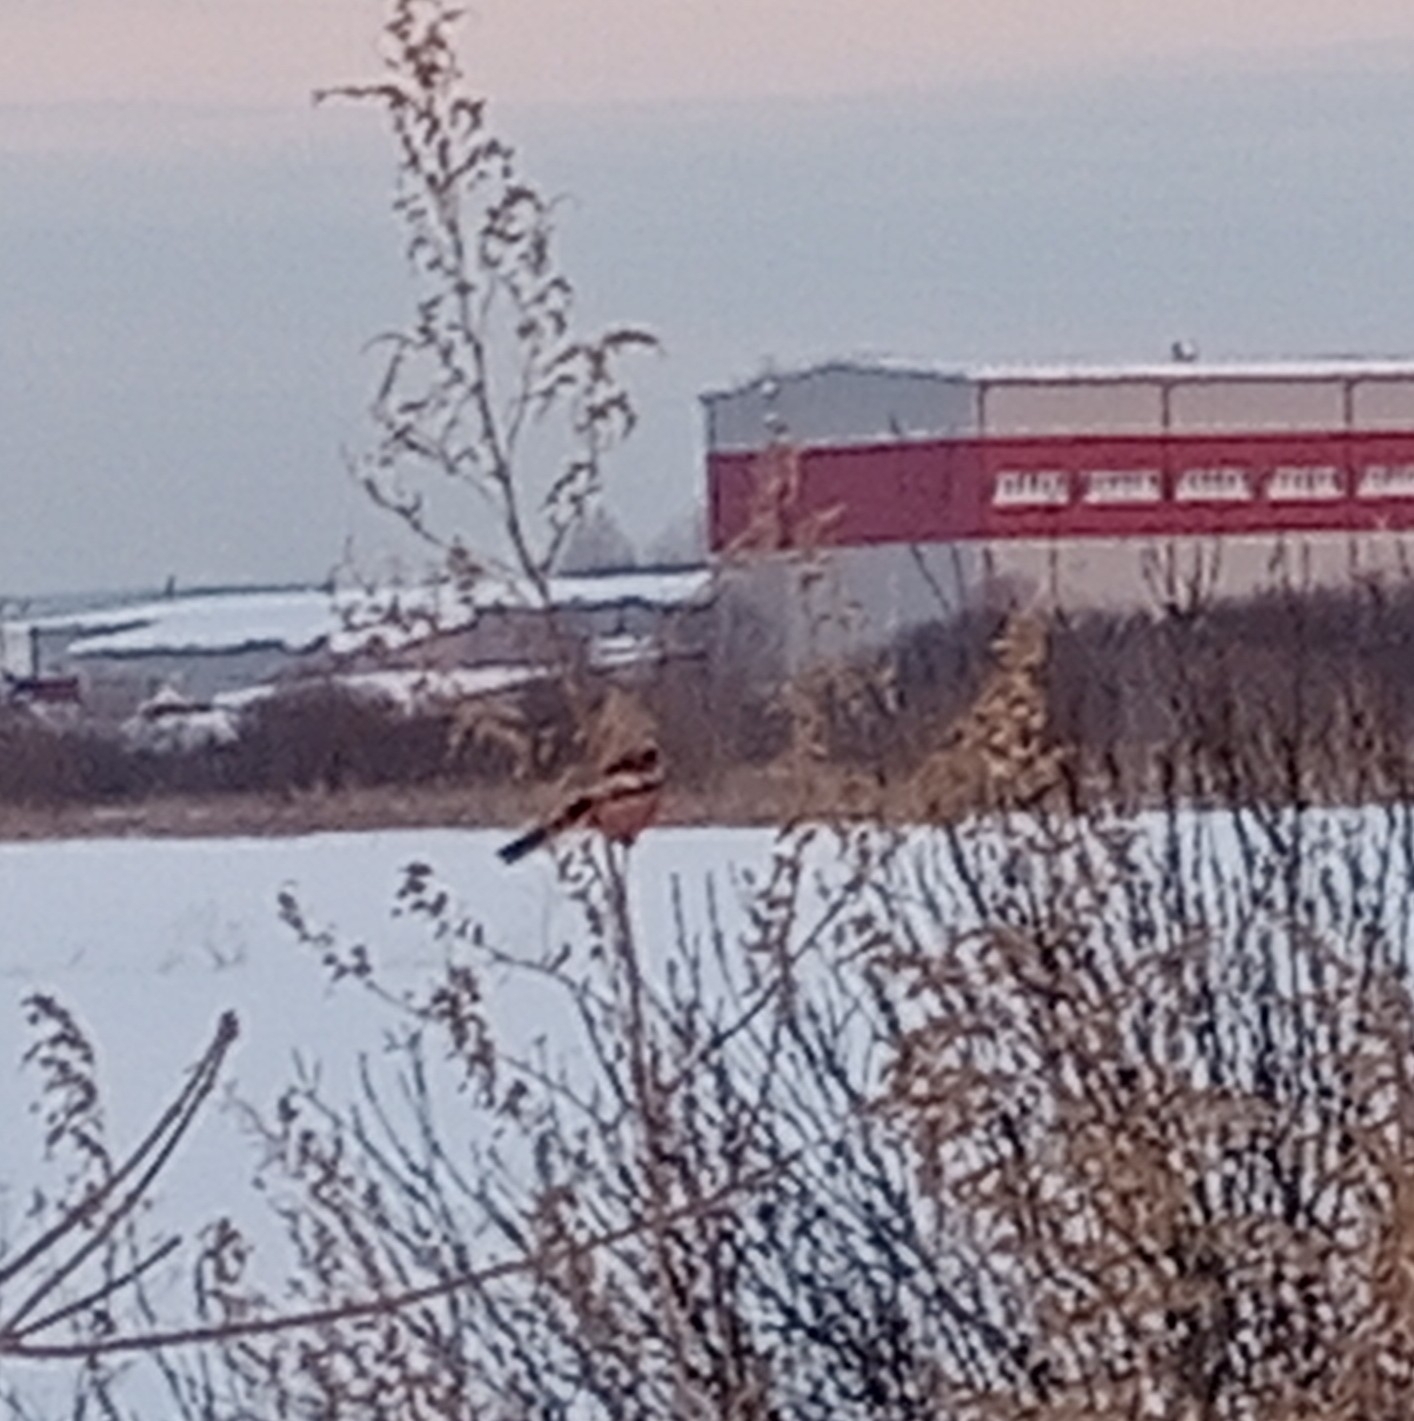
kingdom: Animalia
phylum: Chordata
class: Aves
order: Passeriformes
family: Fringillidae
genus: Carpodacus
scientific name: Carpodacus sibiricus
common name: Long-tailed rosefinch
